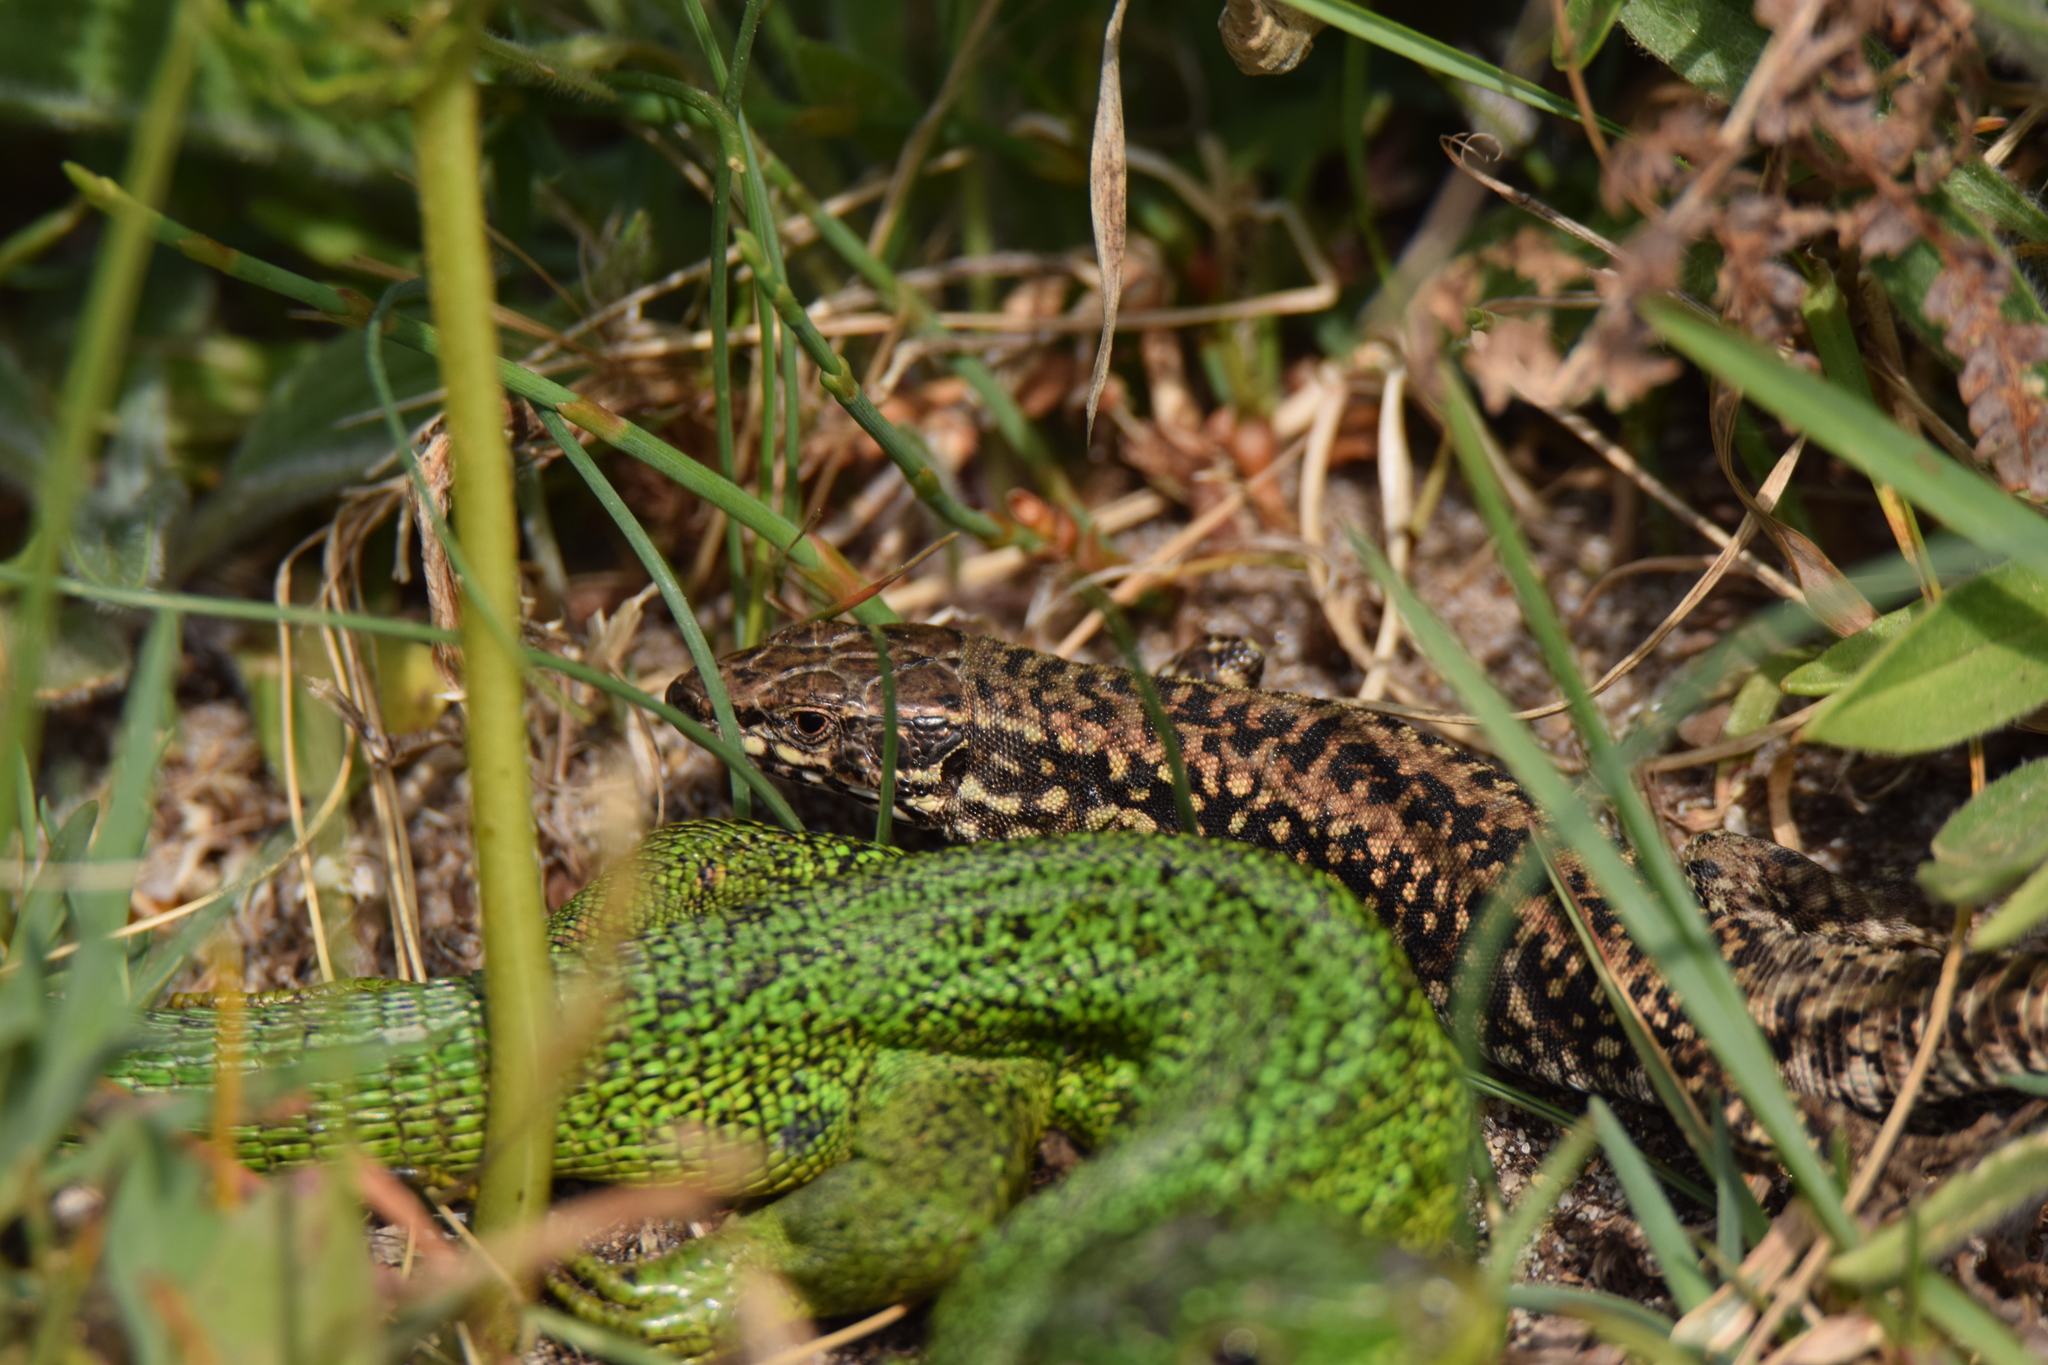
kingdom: Animalia
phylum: Chordata
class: Squamata
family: Lacertidae
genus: Podarcis
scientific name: Podarcis muralis
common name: Common wall lizard
